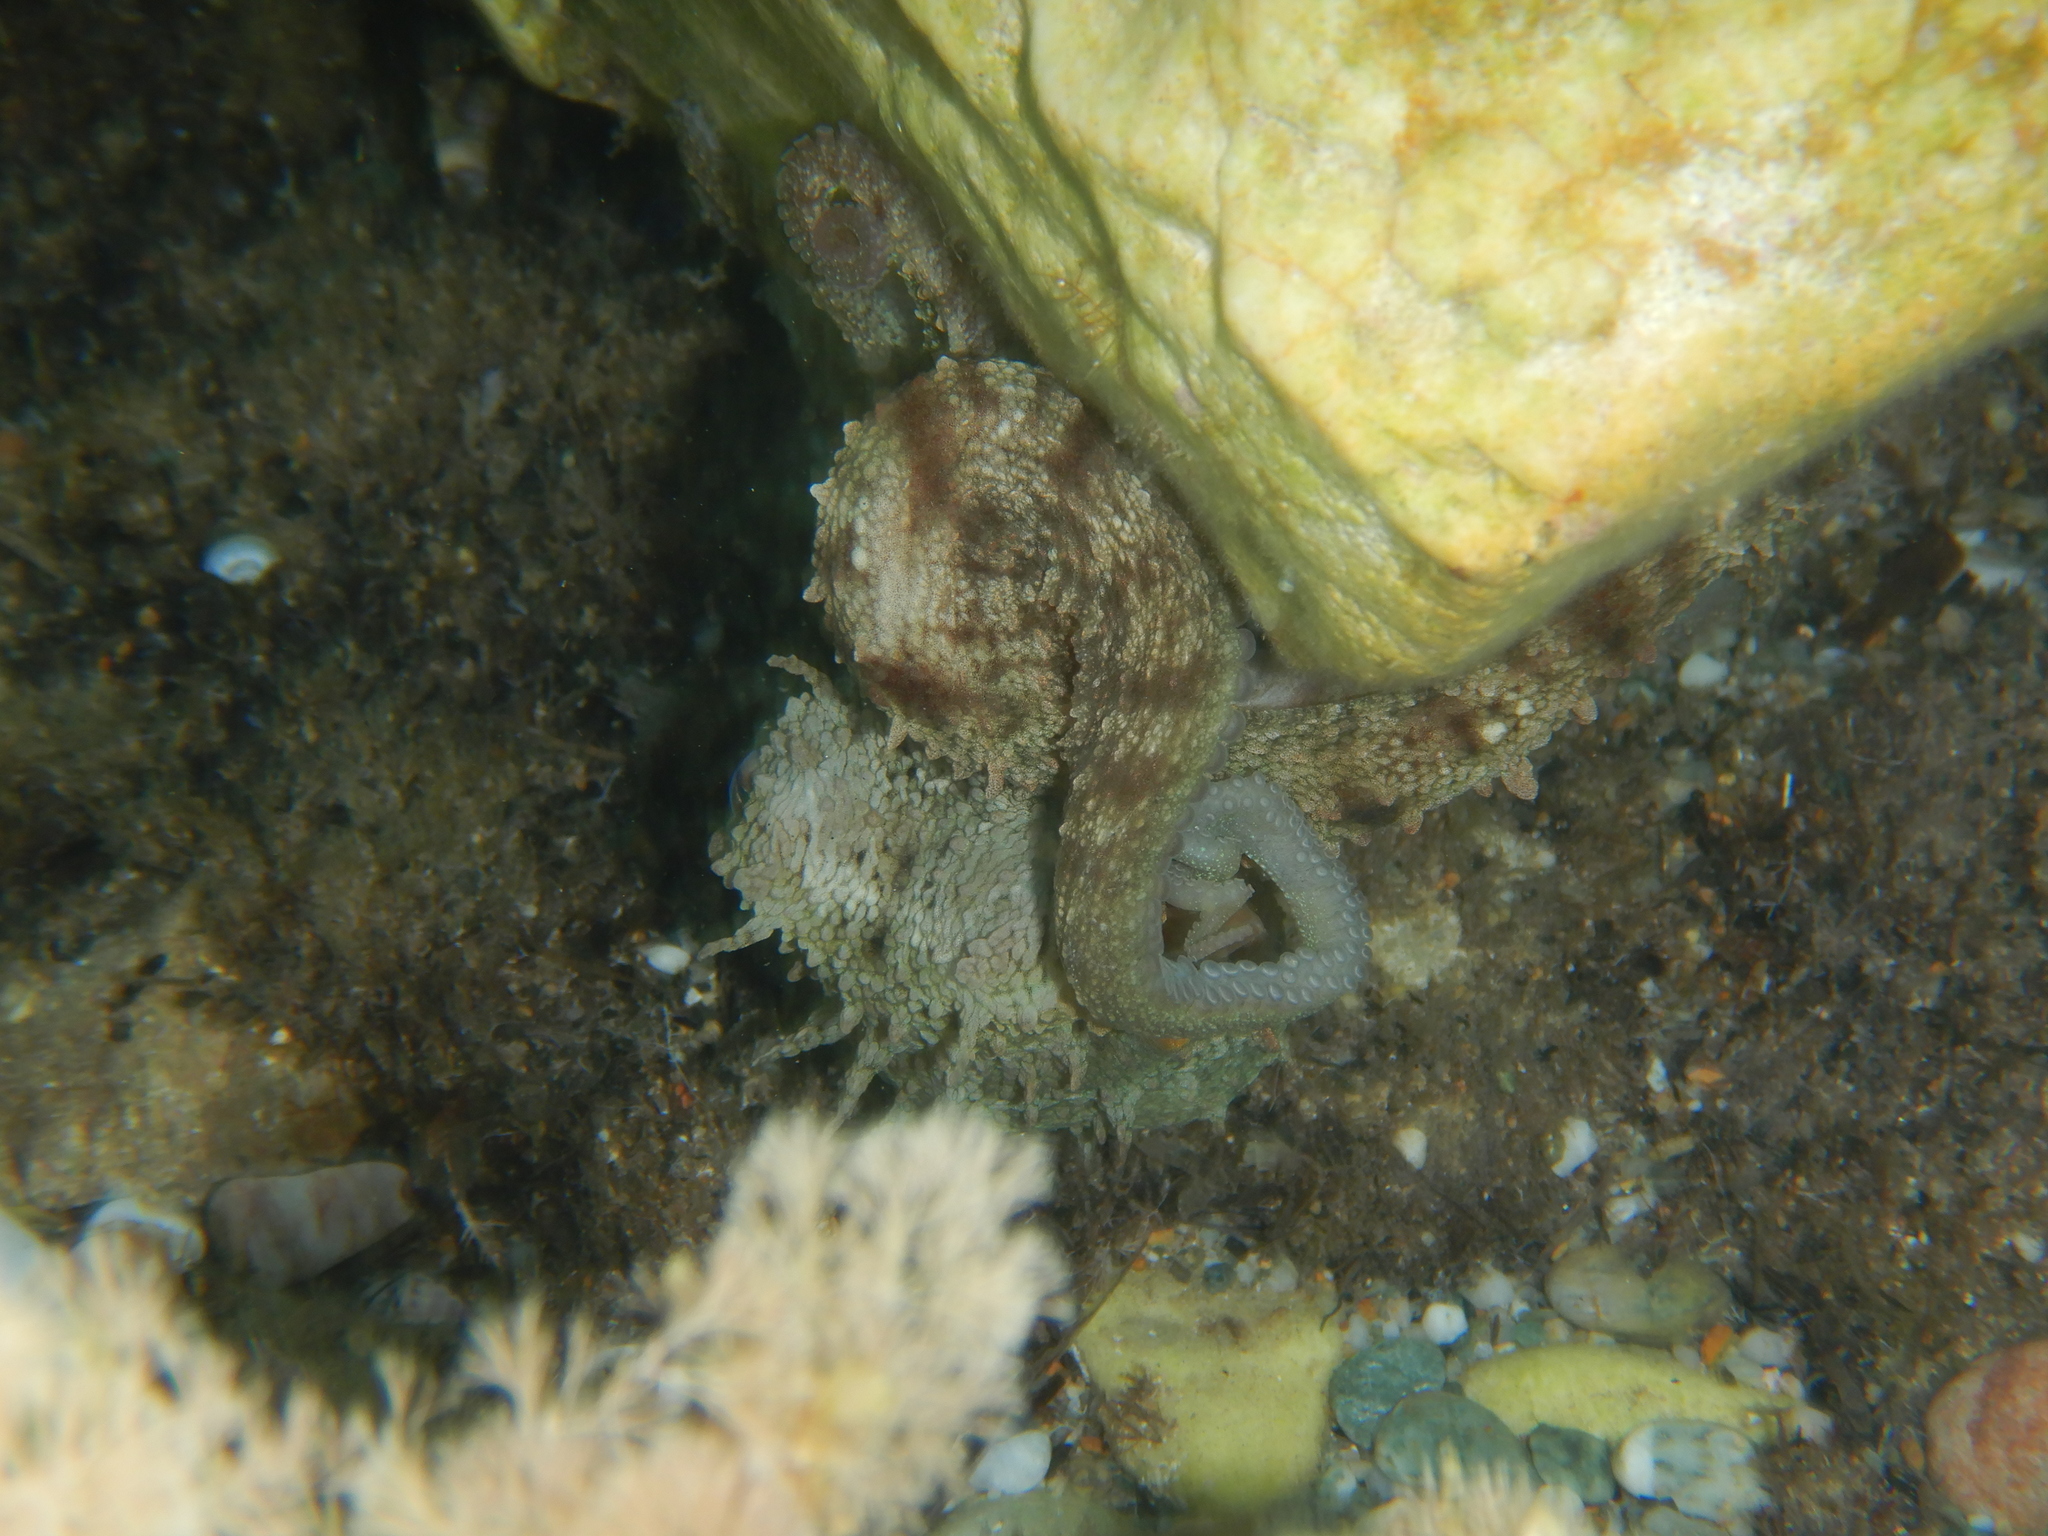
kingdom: Animalia
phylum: Mollusca
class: Cephalopoda
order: Octopoda
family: Octopodidae
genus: Octopus
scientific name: Octopus vulgaris
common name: Common octopus
